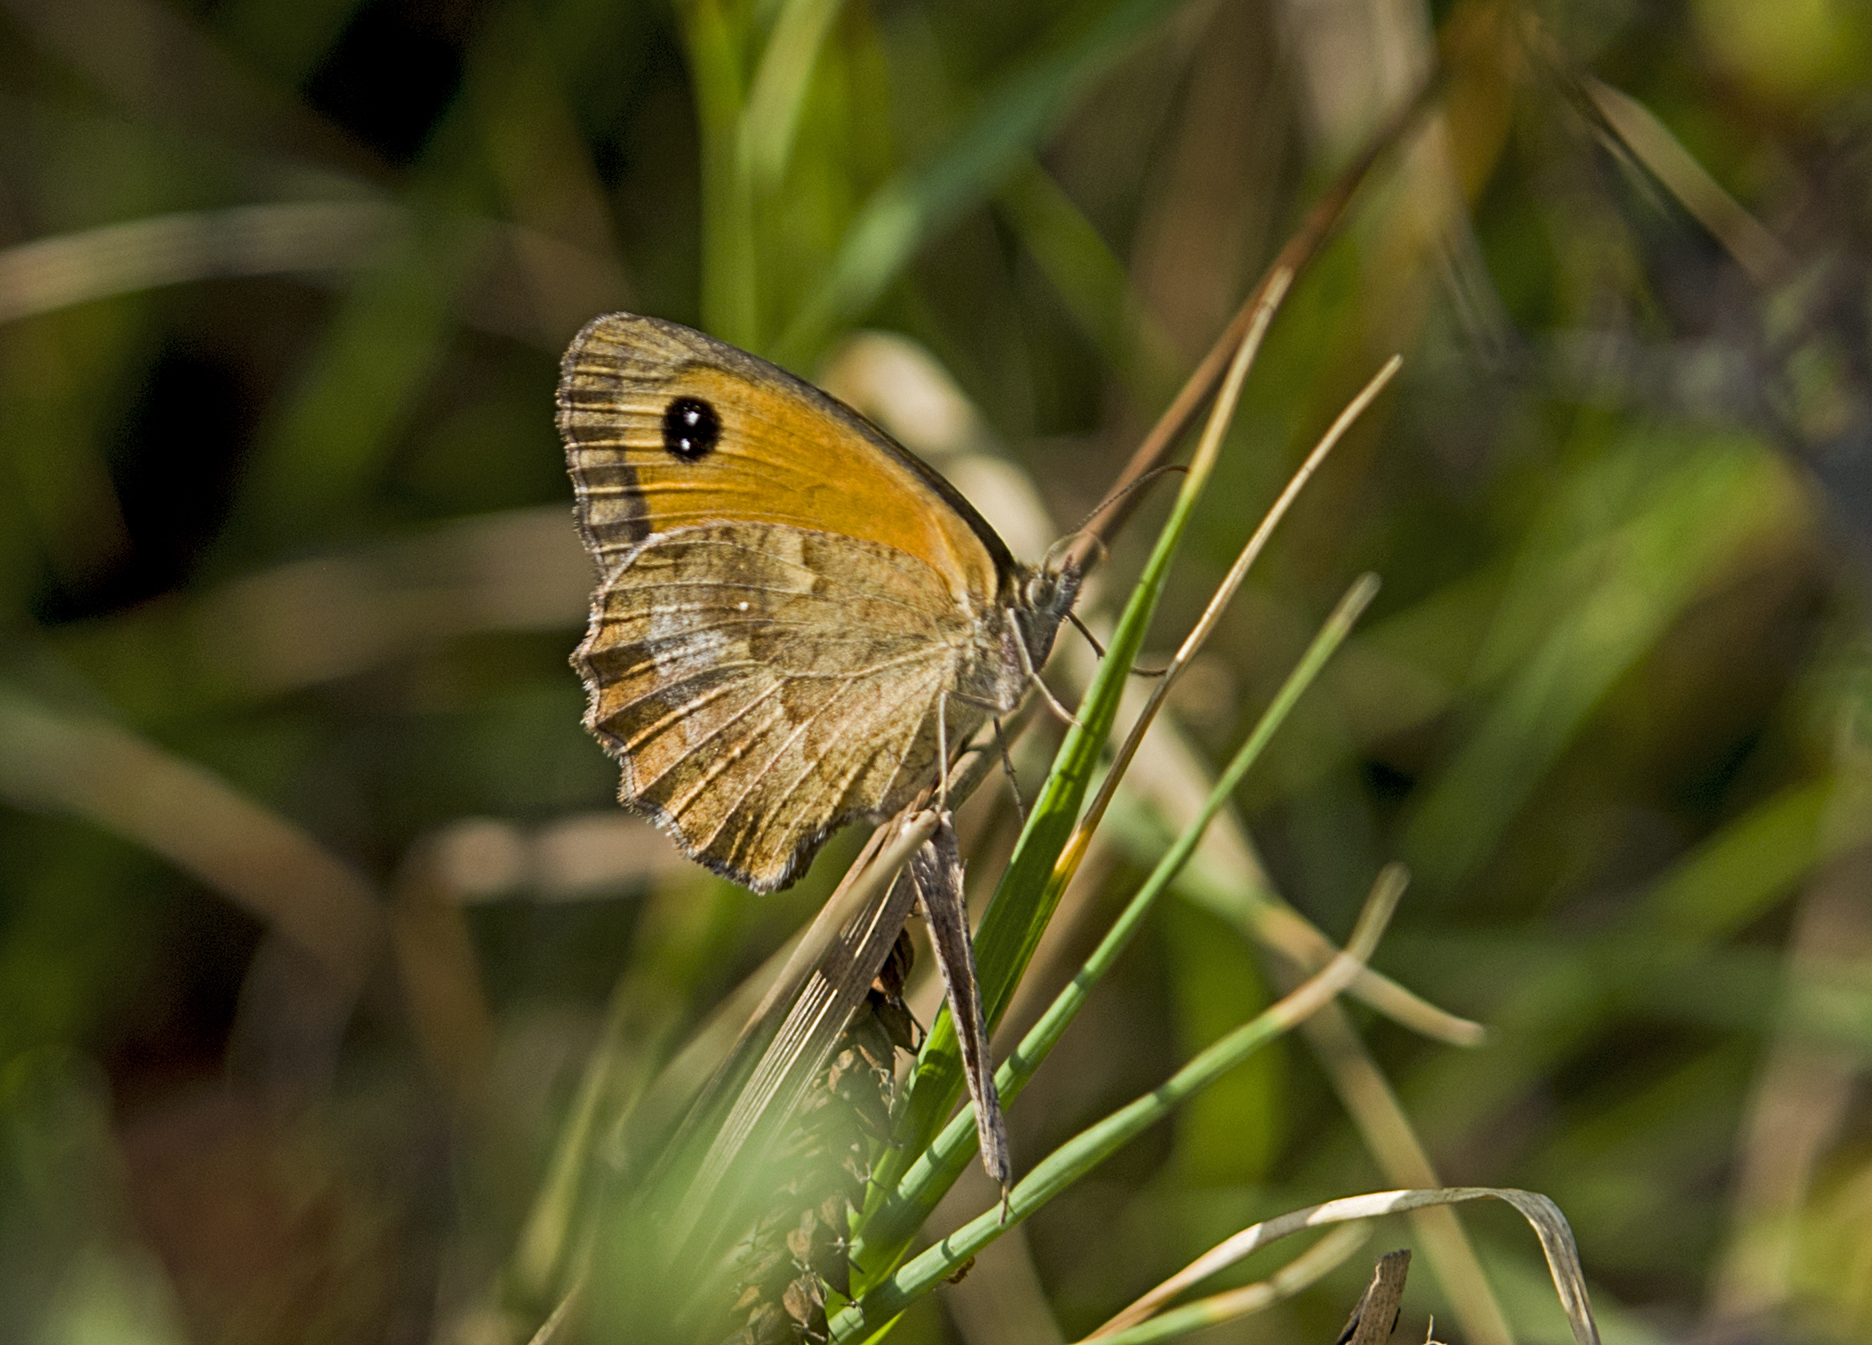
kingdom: Animalia
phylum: Arthropoda
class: Insecta
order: Lepidoptera
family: Nymphalidae
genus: Pyronia
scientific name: Pyronia tithonus
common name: Gatekeeper
